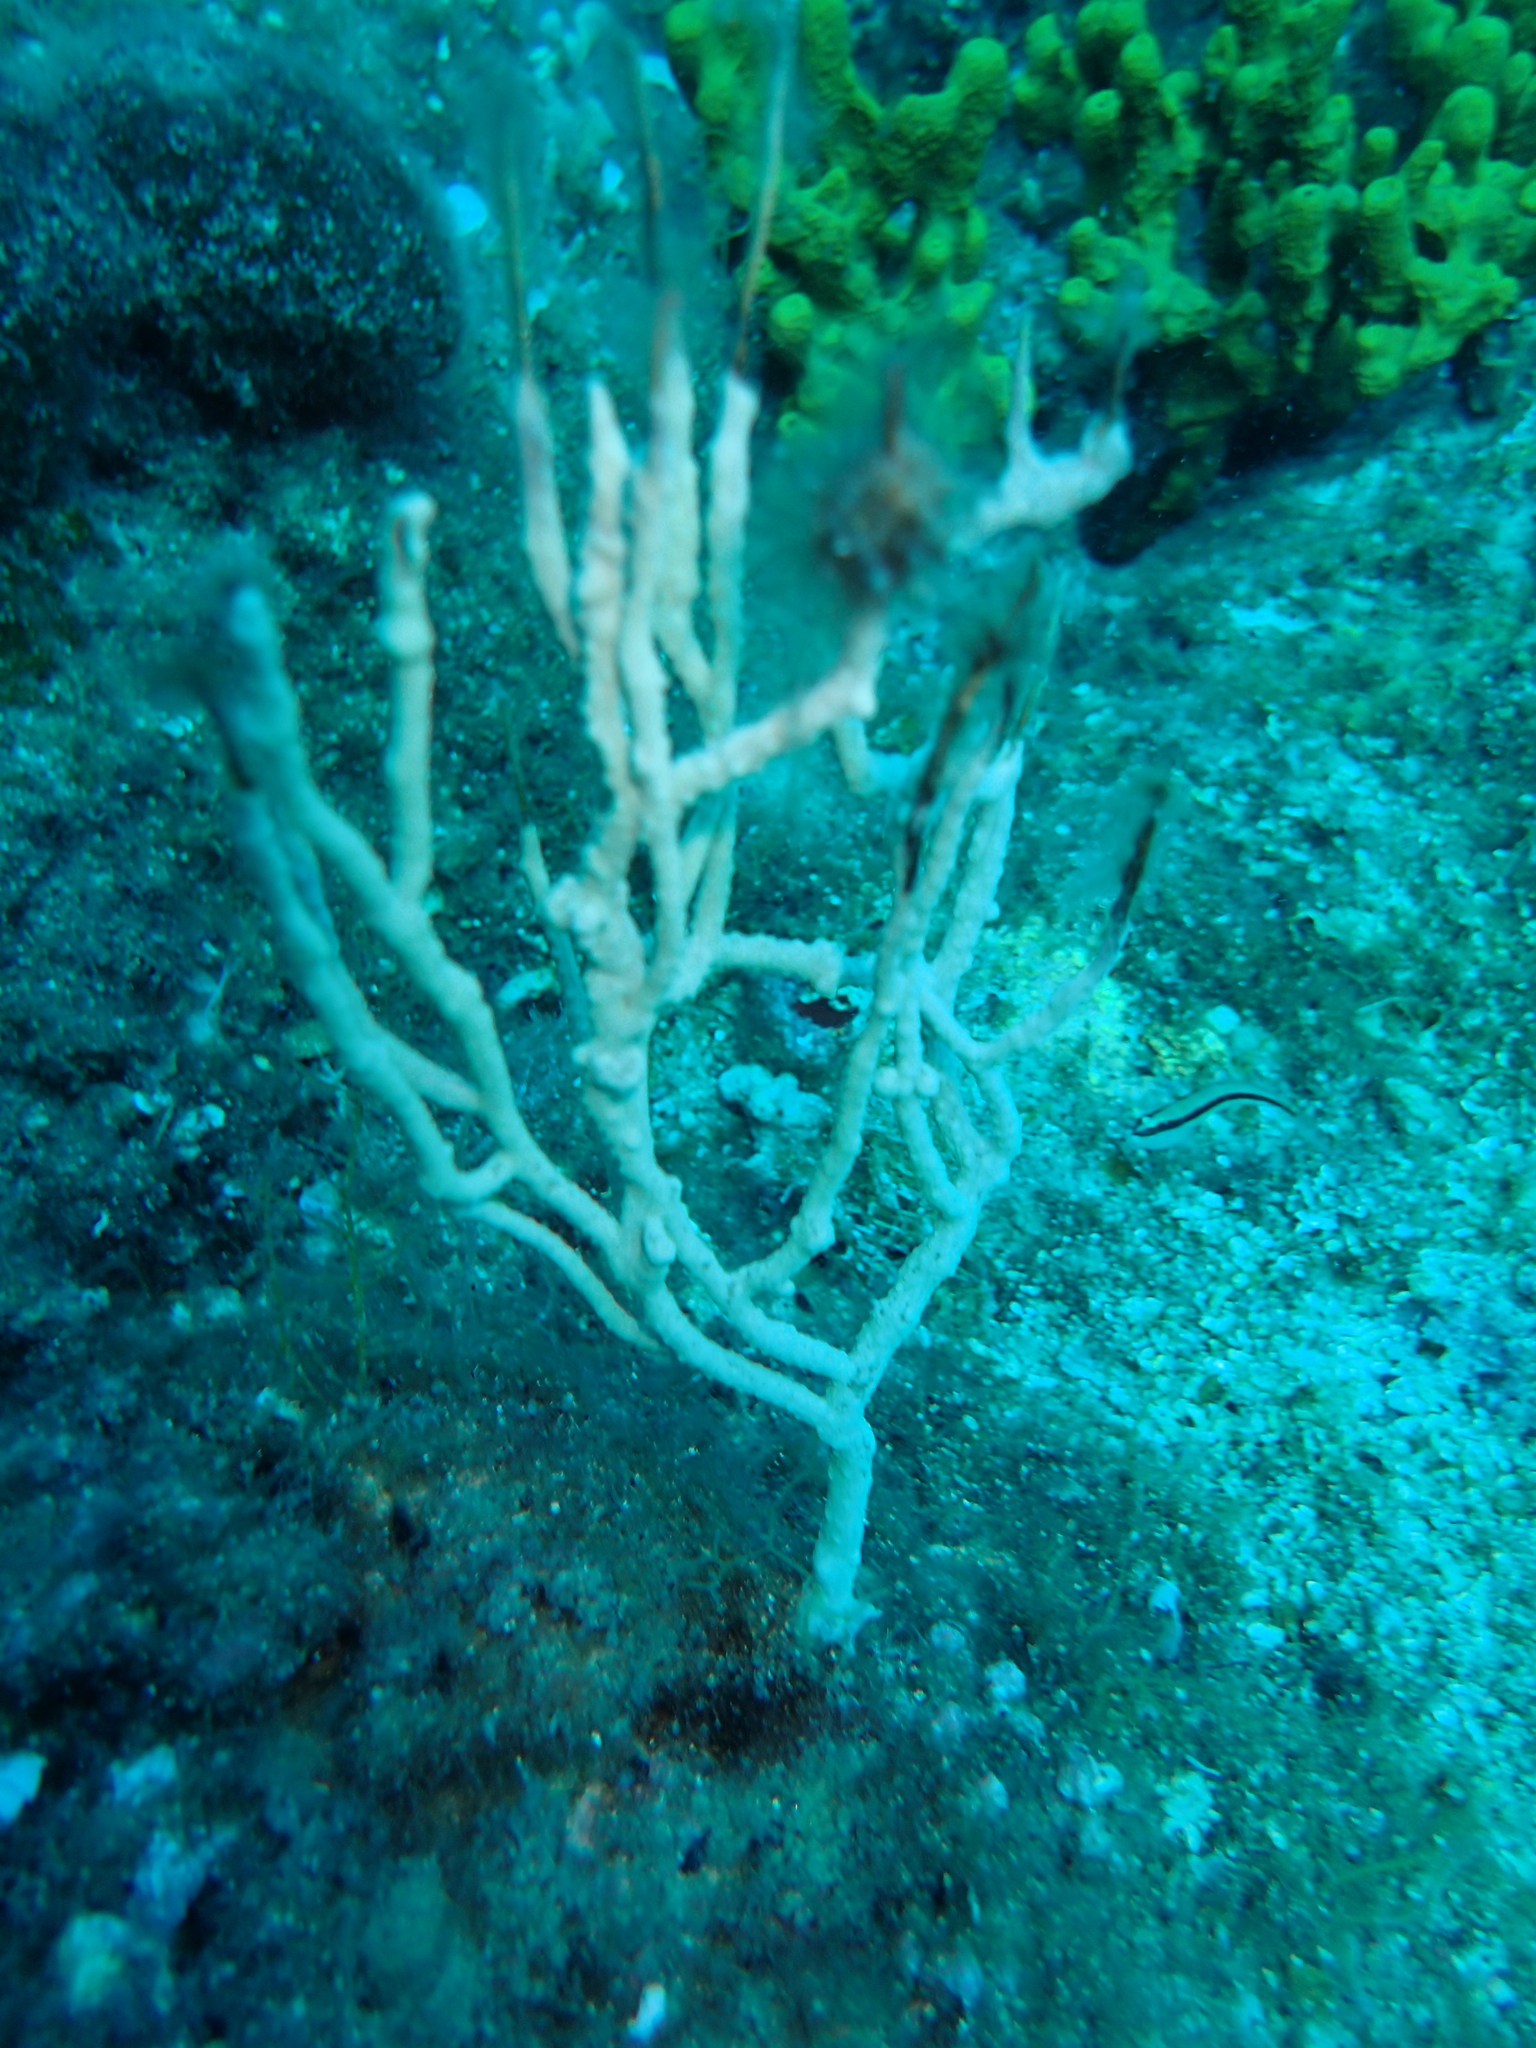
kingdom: Animalia
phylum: Cnidaria
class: Anthozoa
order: Malacalcyonacea
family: Eunicellidae
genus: Eunicella
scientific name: Eunicella singularis
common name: White horny coral
